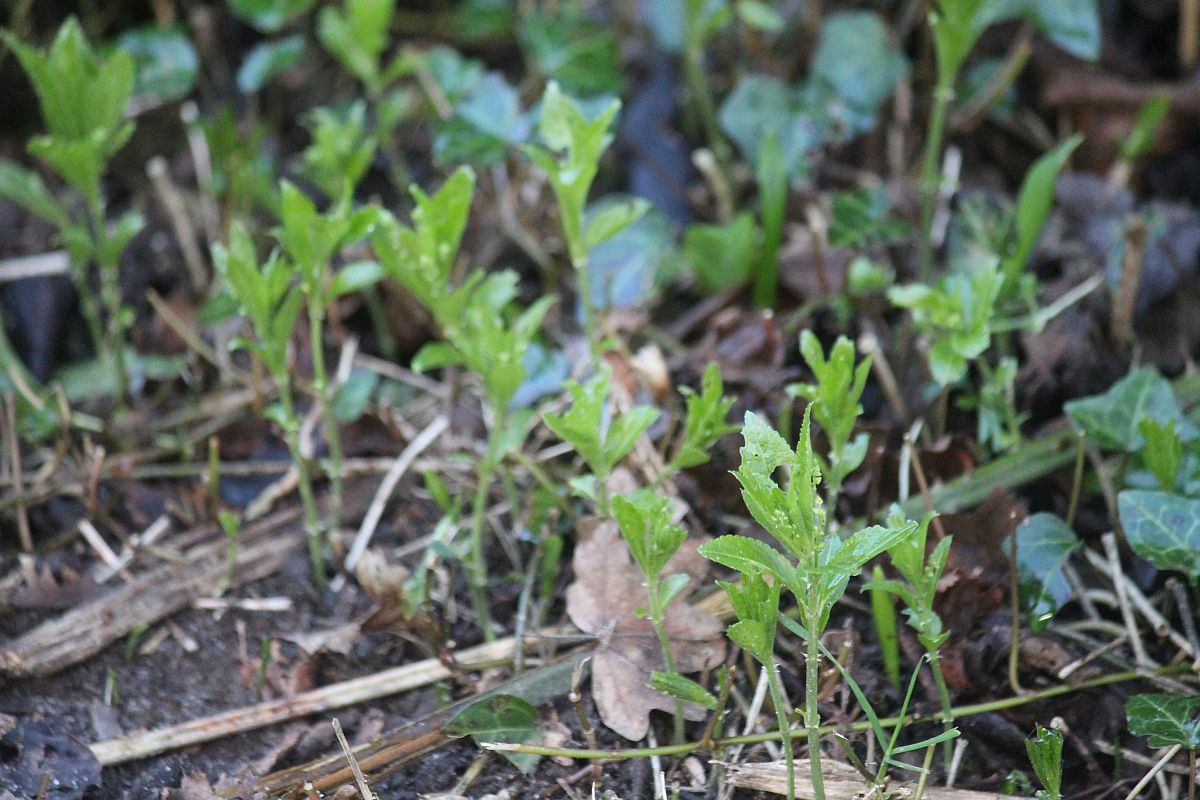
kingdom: Plantae
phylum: Tracheophyta
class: Magnoliopsida
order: Malpighiales
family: Euphorbiaceae
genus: Mercurialis
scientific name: Mercurialis perennis
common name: Dog mercury
